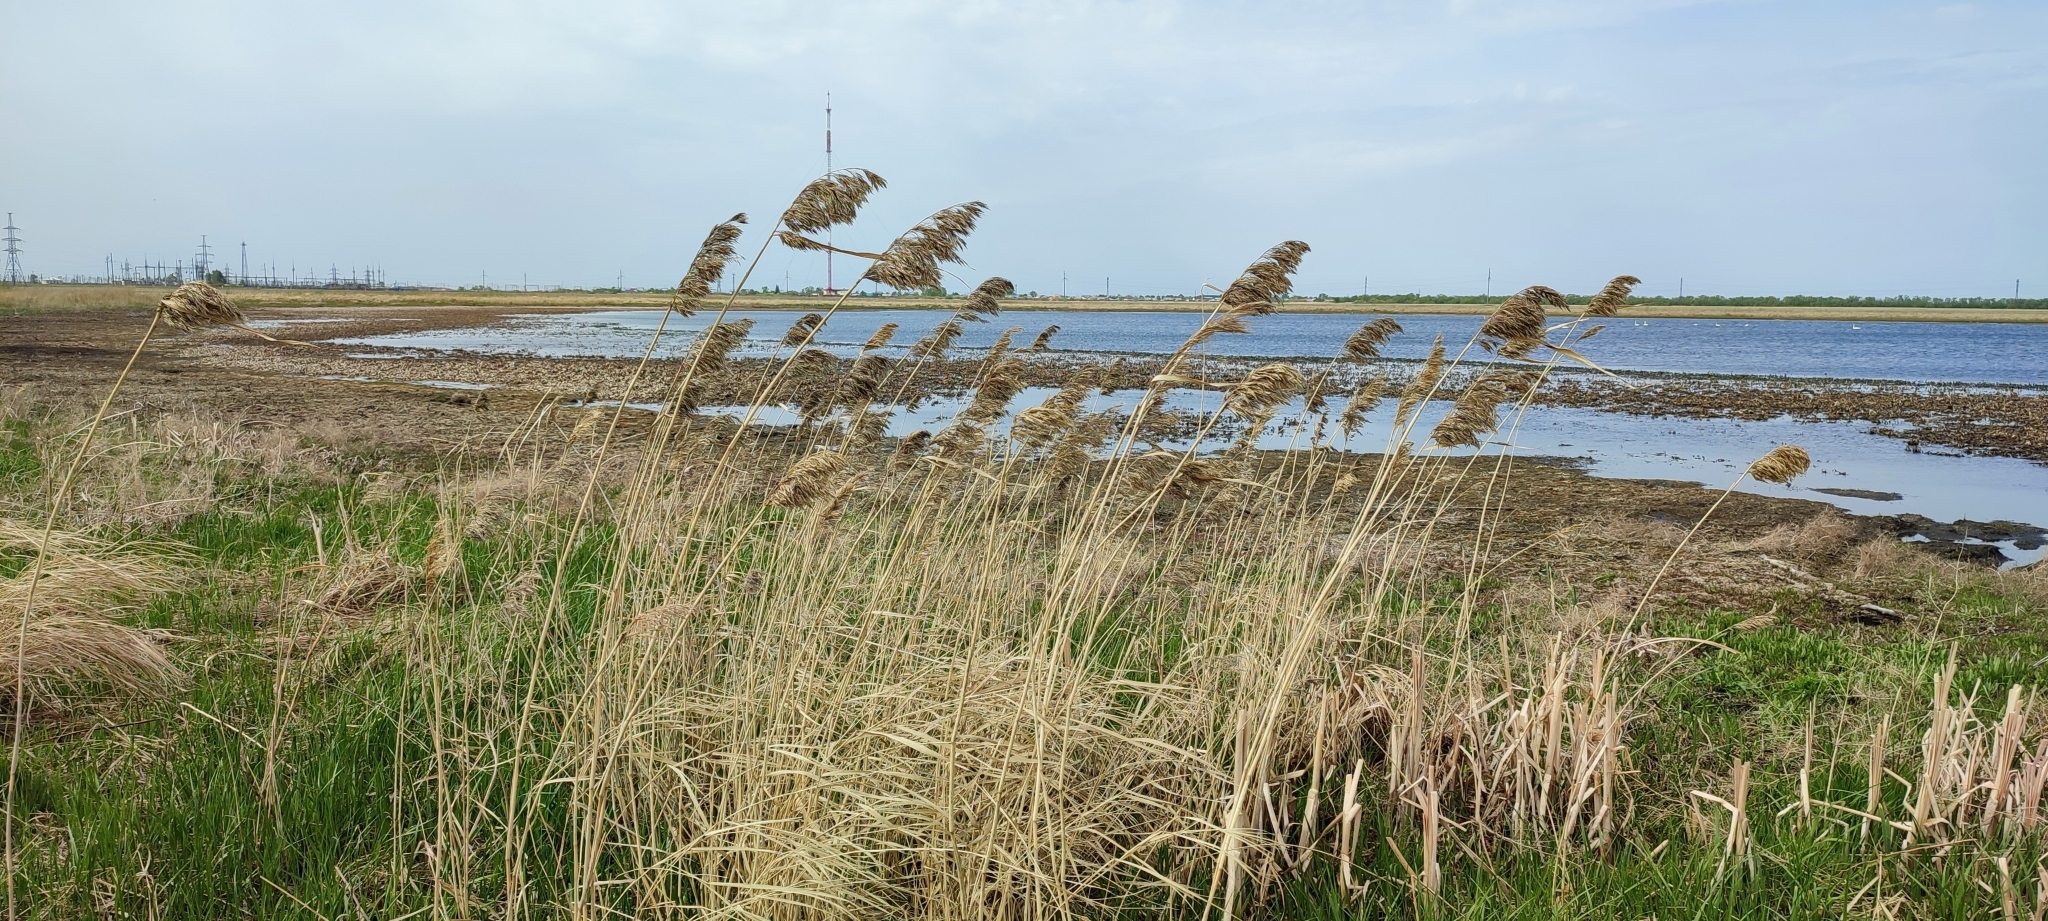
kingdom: Plantae
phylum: Tracheophyta
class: Liliopsida
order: Poales
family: Poaceae
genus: Phragmites
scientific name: Phragmites australis
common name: Common reed
